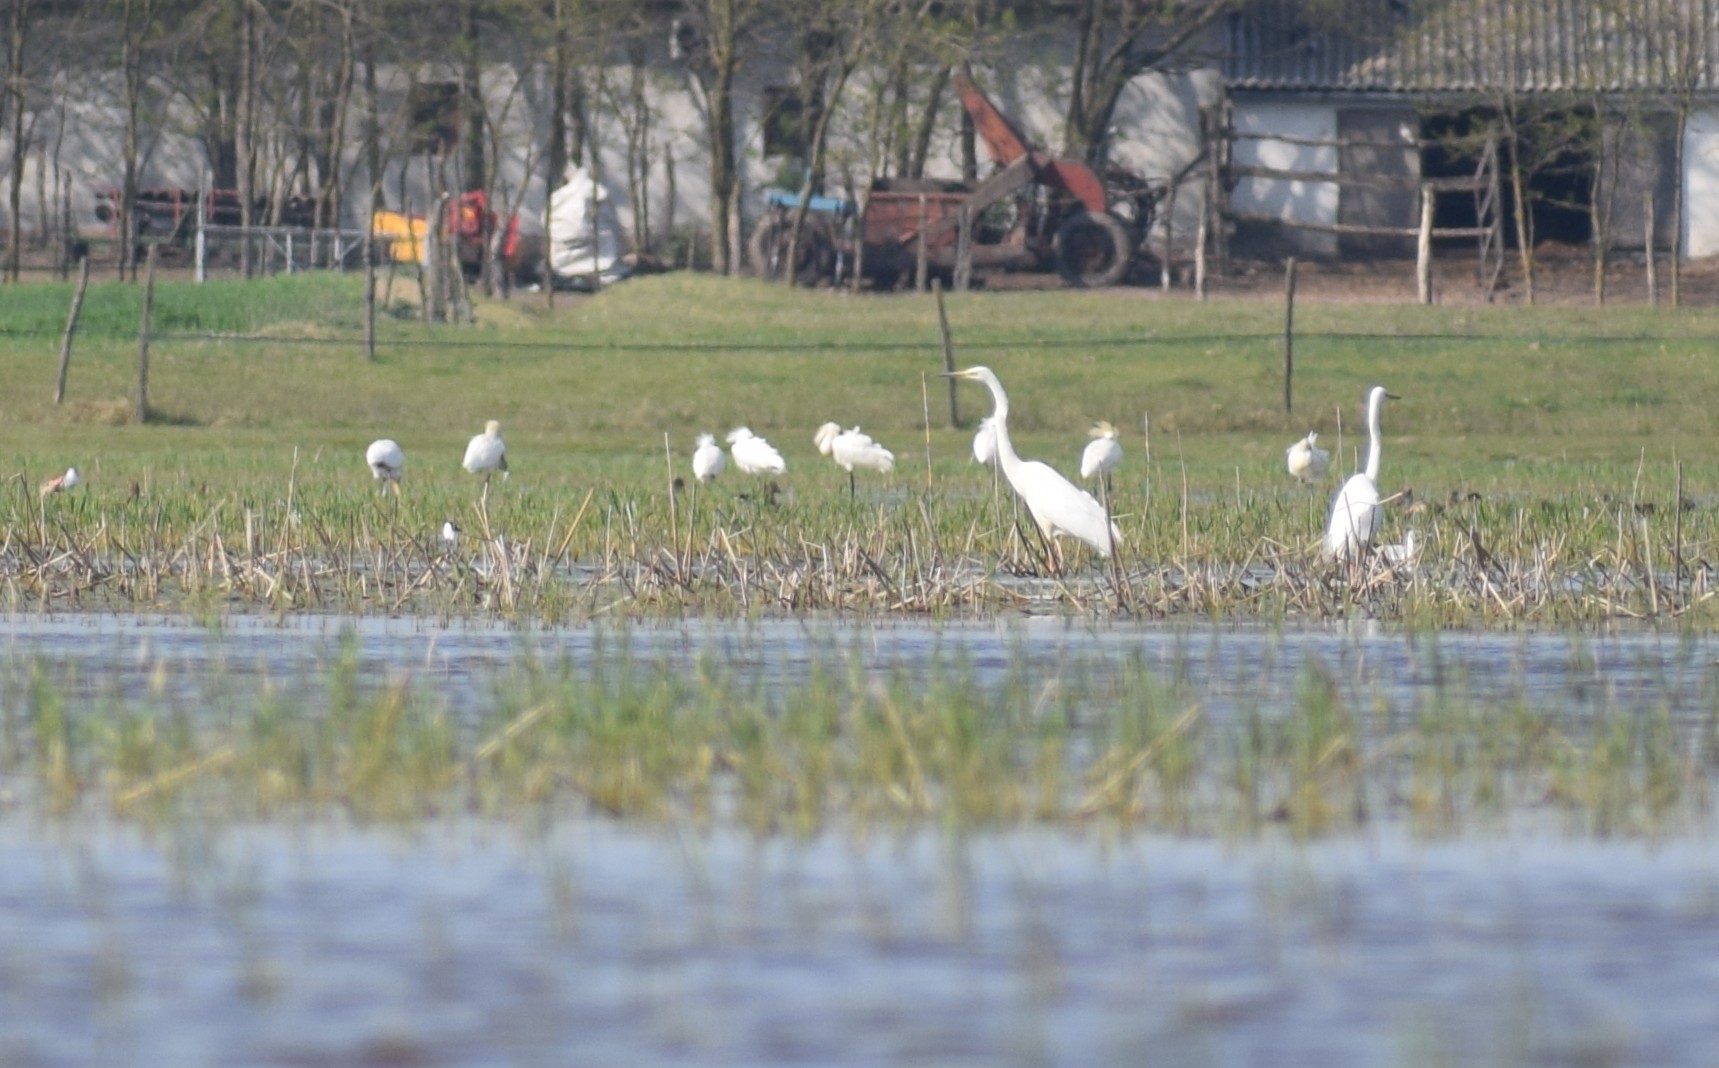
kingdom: Animalia
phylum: Chordata
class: Aves
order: Pelecaniformes
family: Threskiornithidae
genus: Platalea
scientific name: Platalea leucorodia
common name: Eurasian spoonbill
